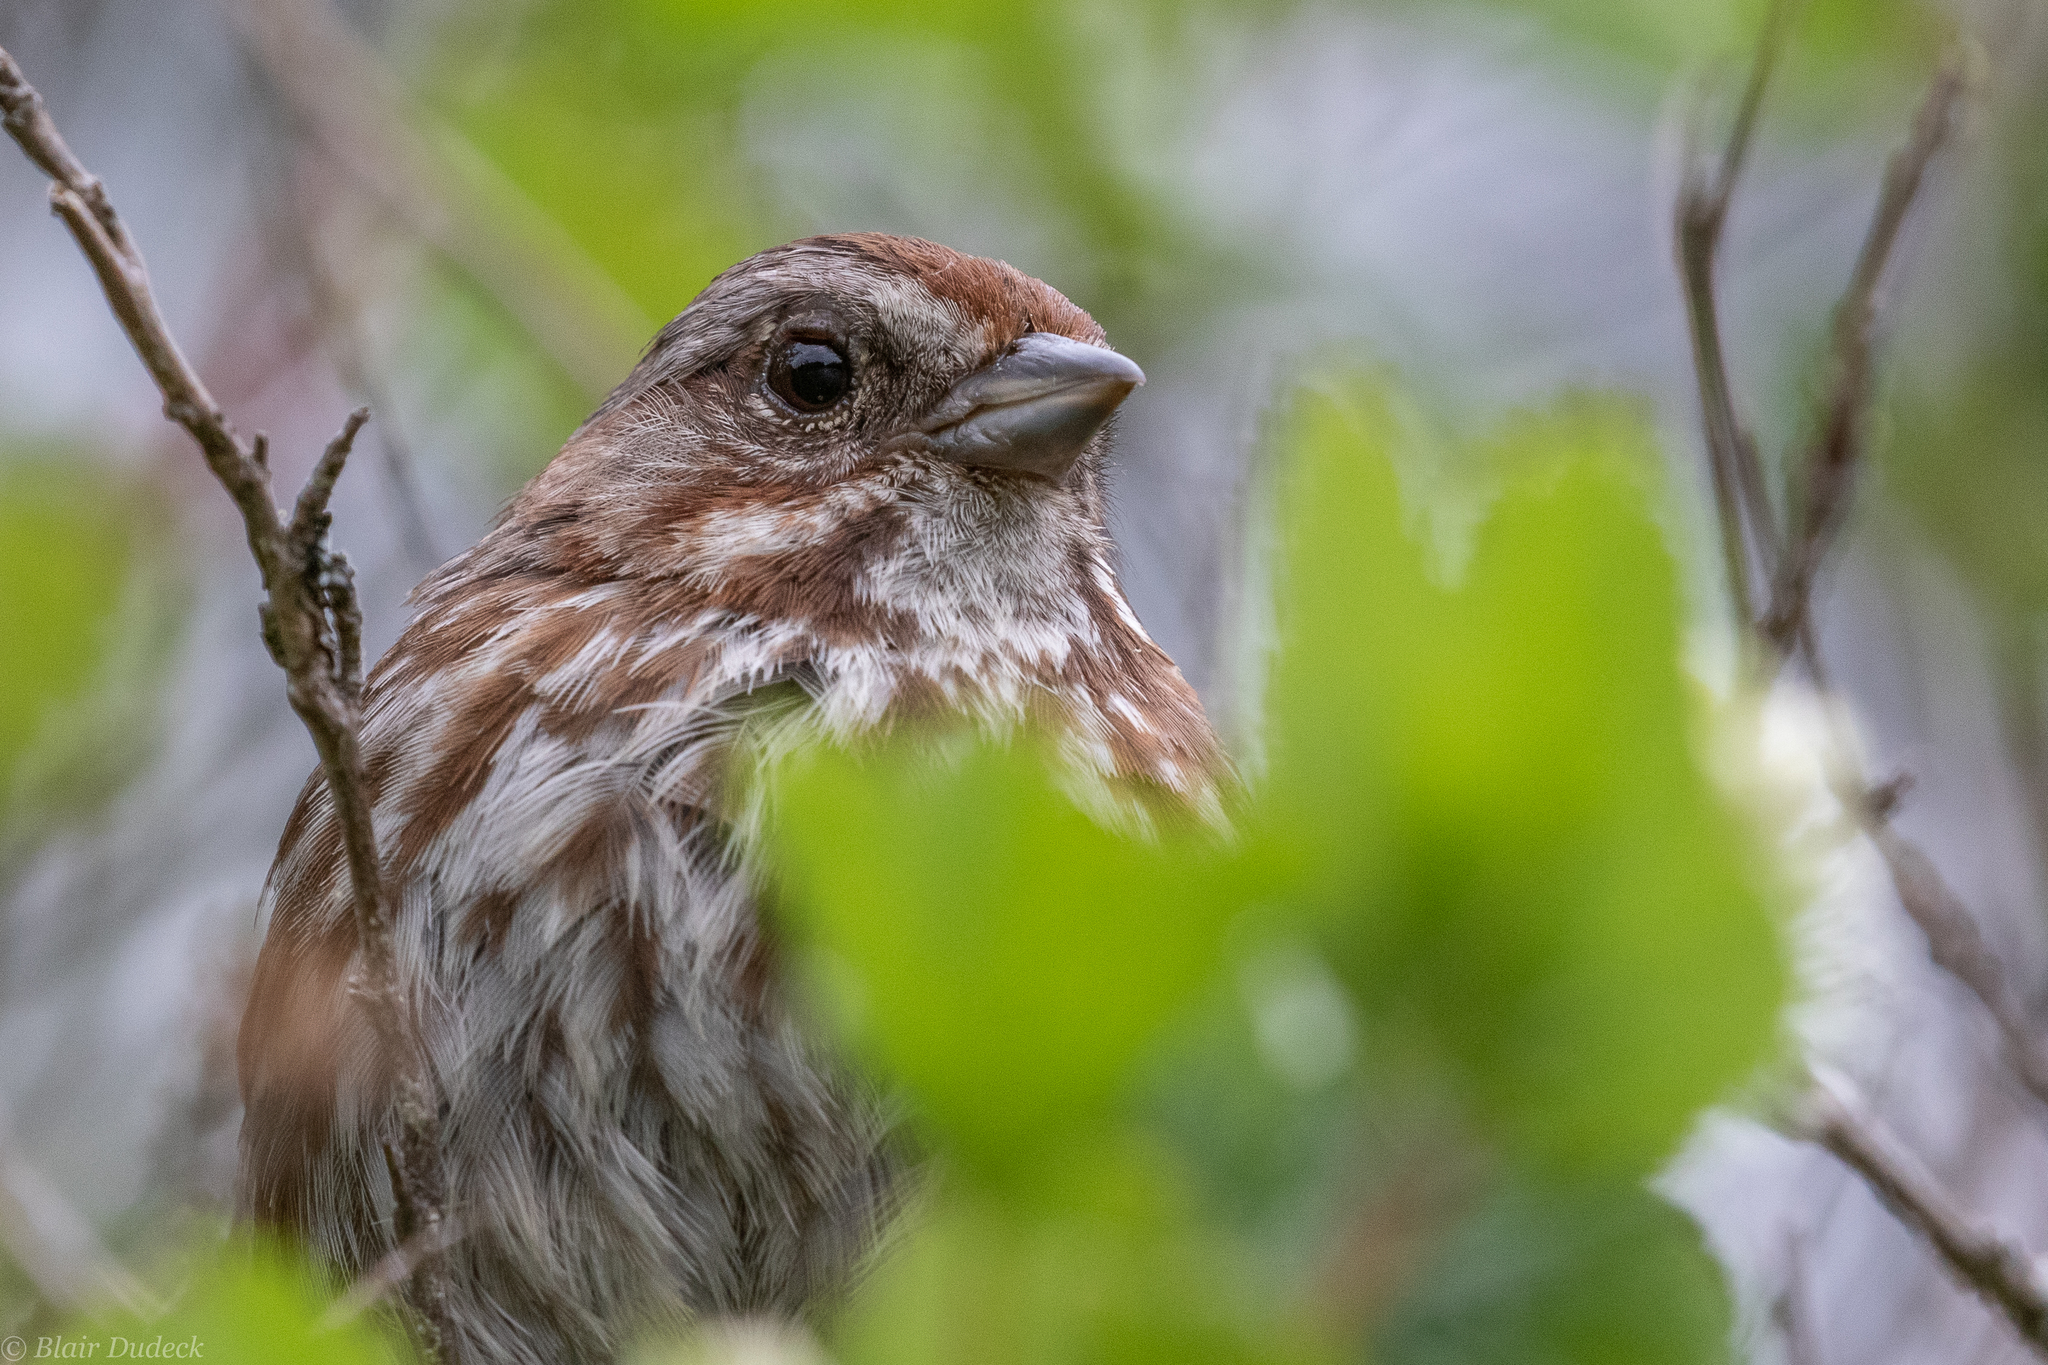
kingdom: Animalia
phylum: Chordata
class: Aves
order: Passeriformes
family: Passerellidae
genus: Melospiza
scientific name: Melospiza melodia
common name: Song sparrow
